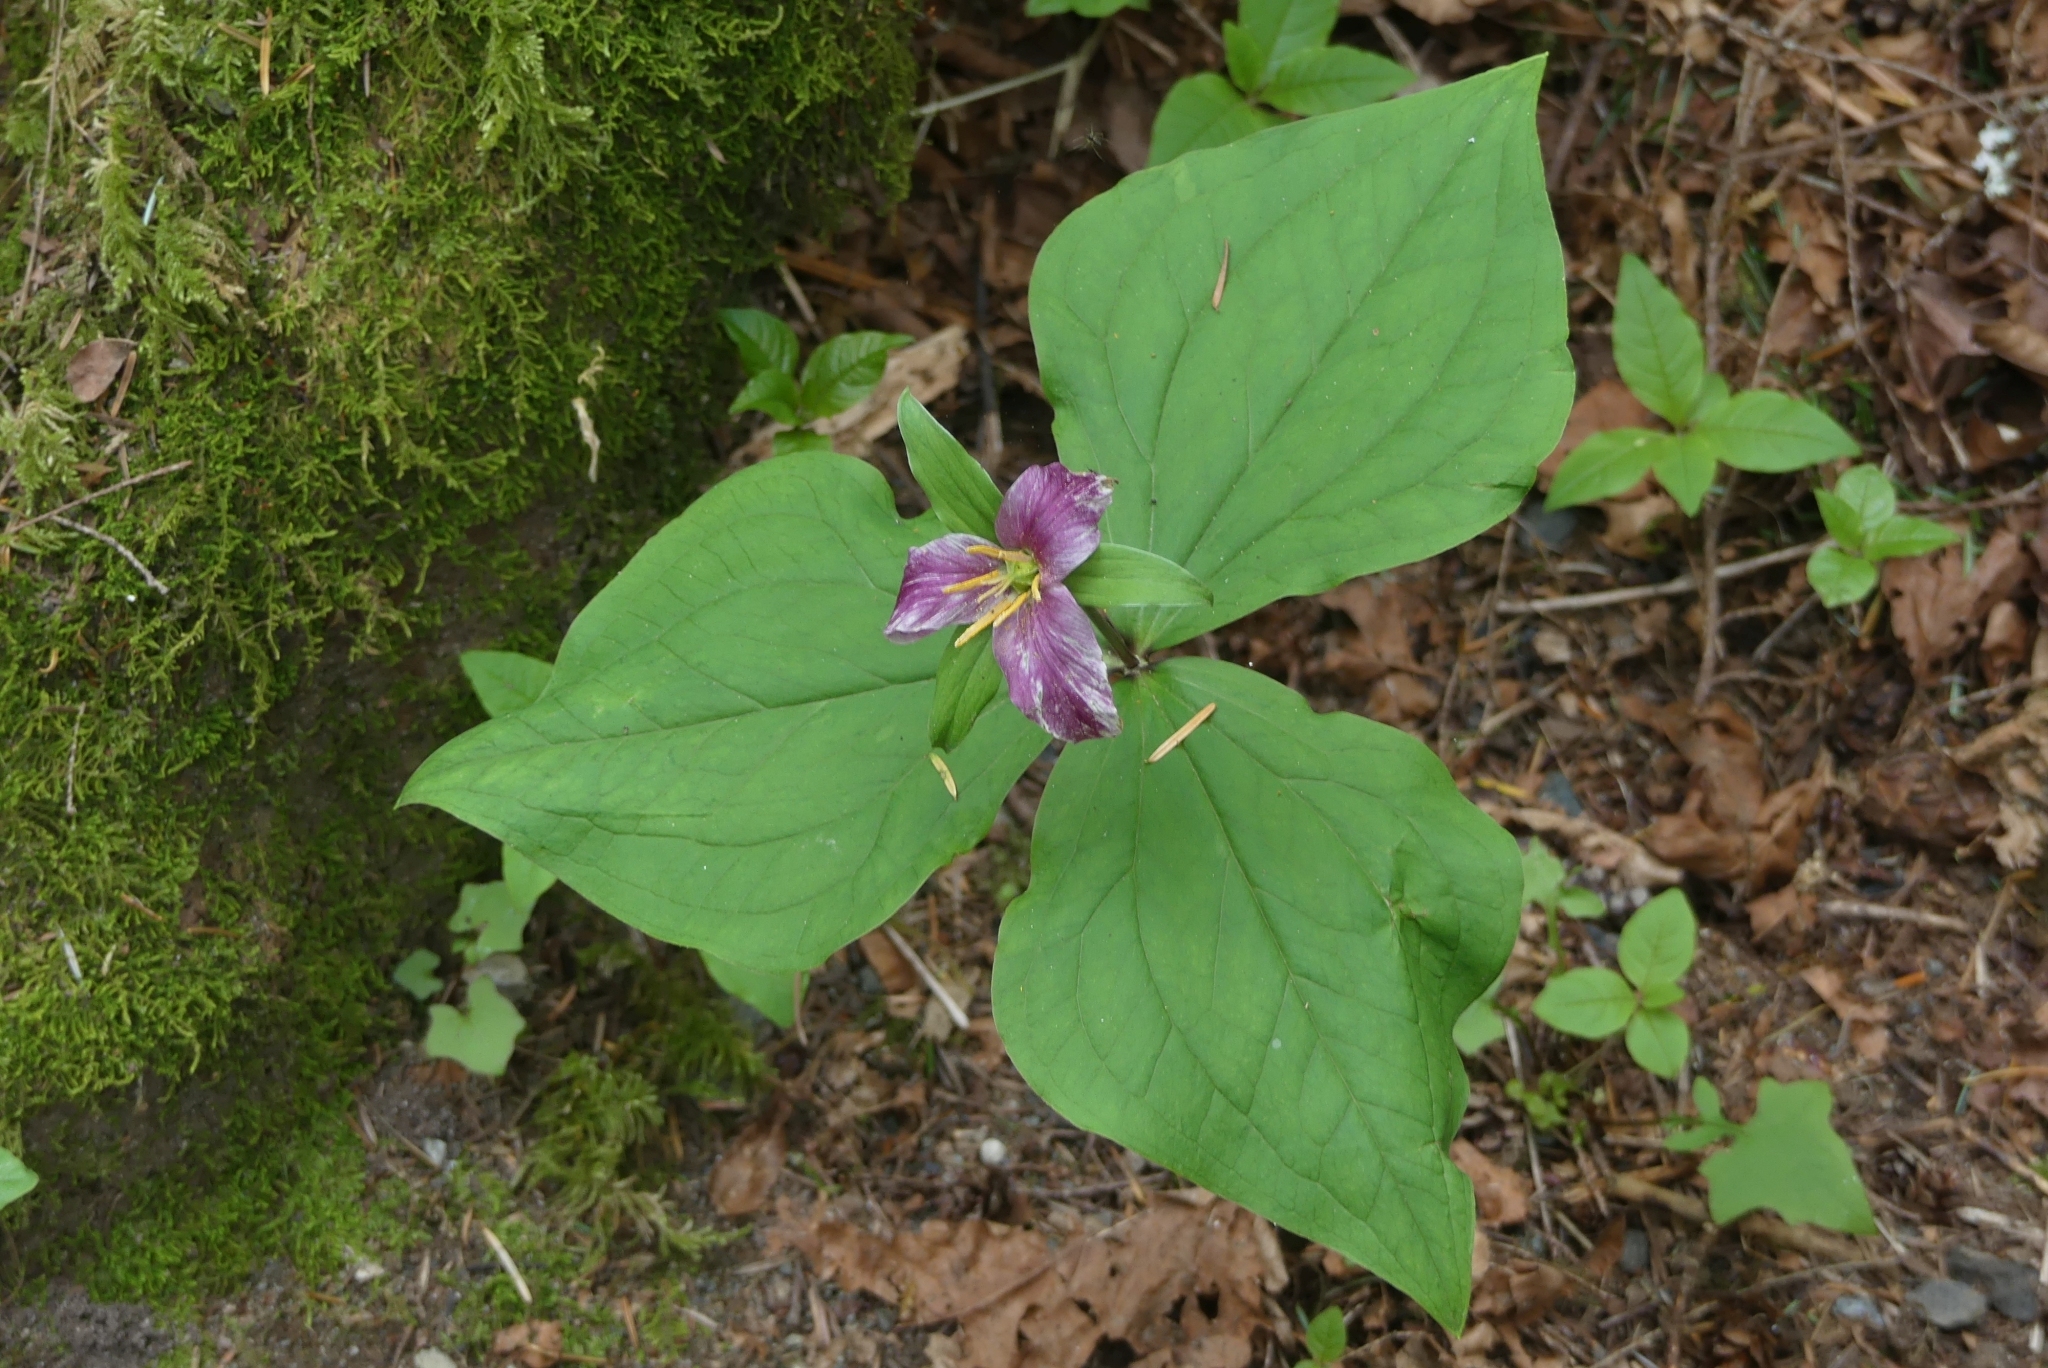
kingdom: Plantae
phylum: Tracheophyta
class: Liliopsida
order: Liliales
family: Melanthiaceae
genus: Trillium
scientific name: Trillium ovatum
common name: Pacific trillium
